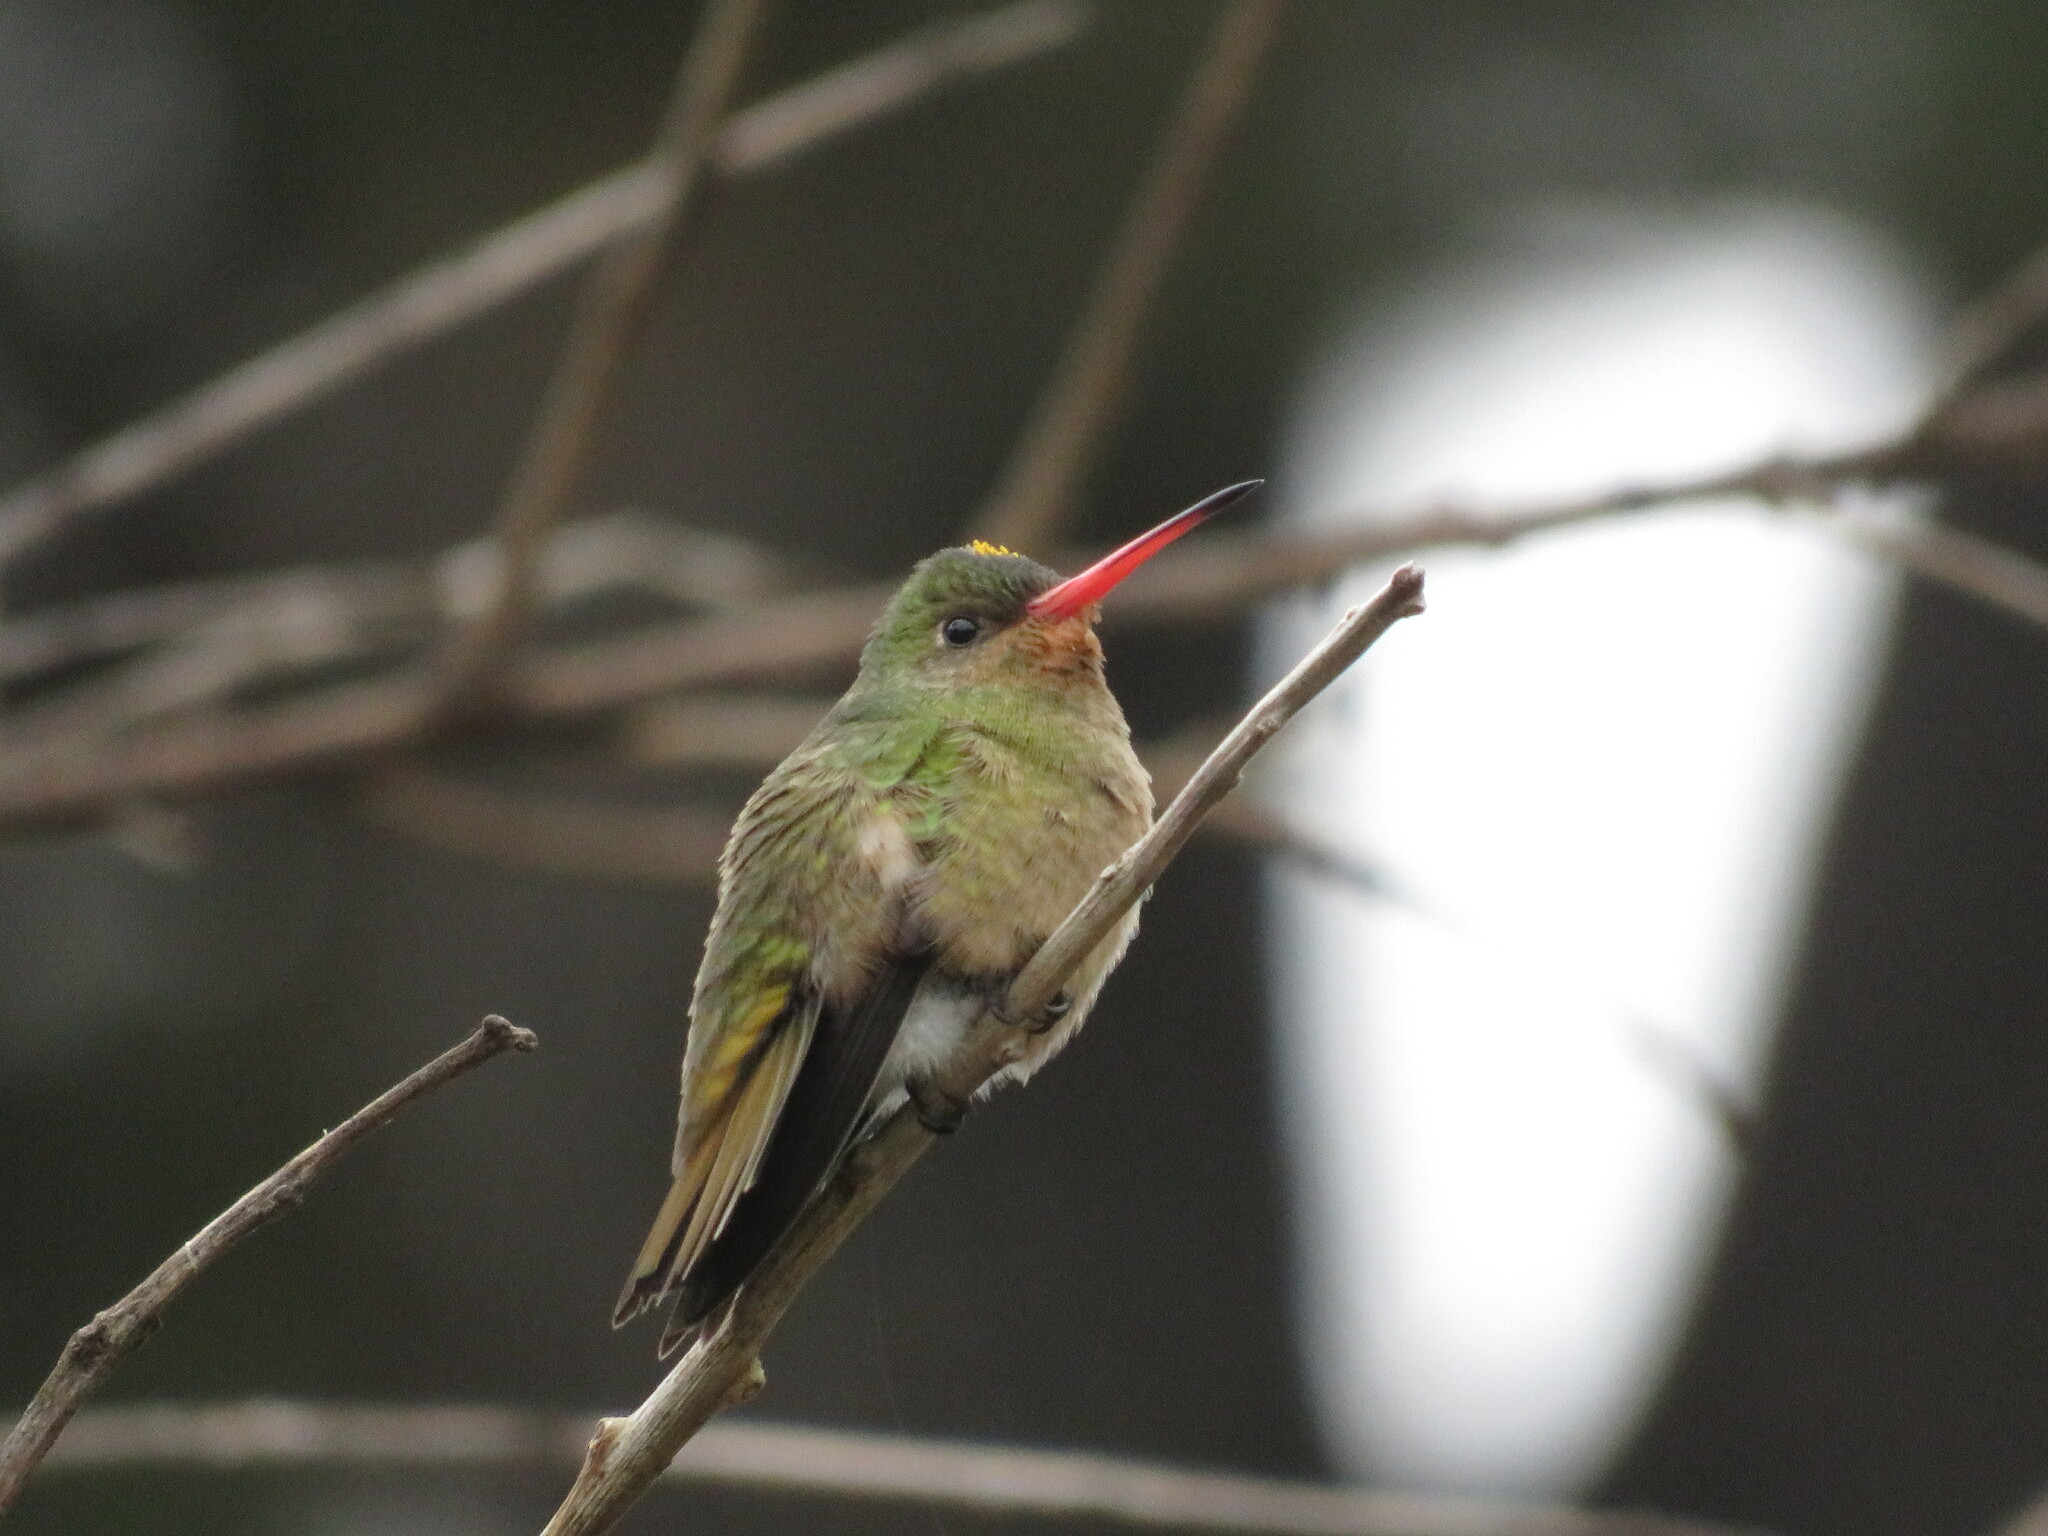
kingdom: Animalia
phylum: Chordata
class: Aves
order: Apodiformes
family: Trochilidae
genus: Hylocharis
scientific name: Hylocharis chrysura
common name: Gilded sapphire
